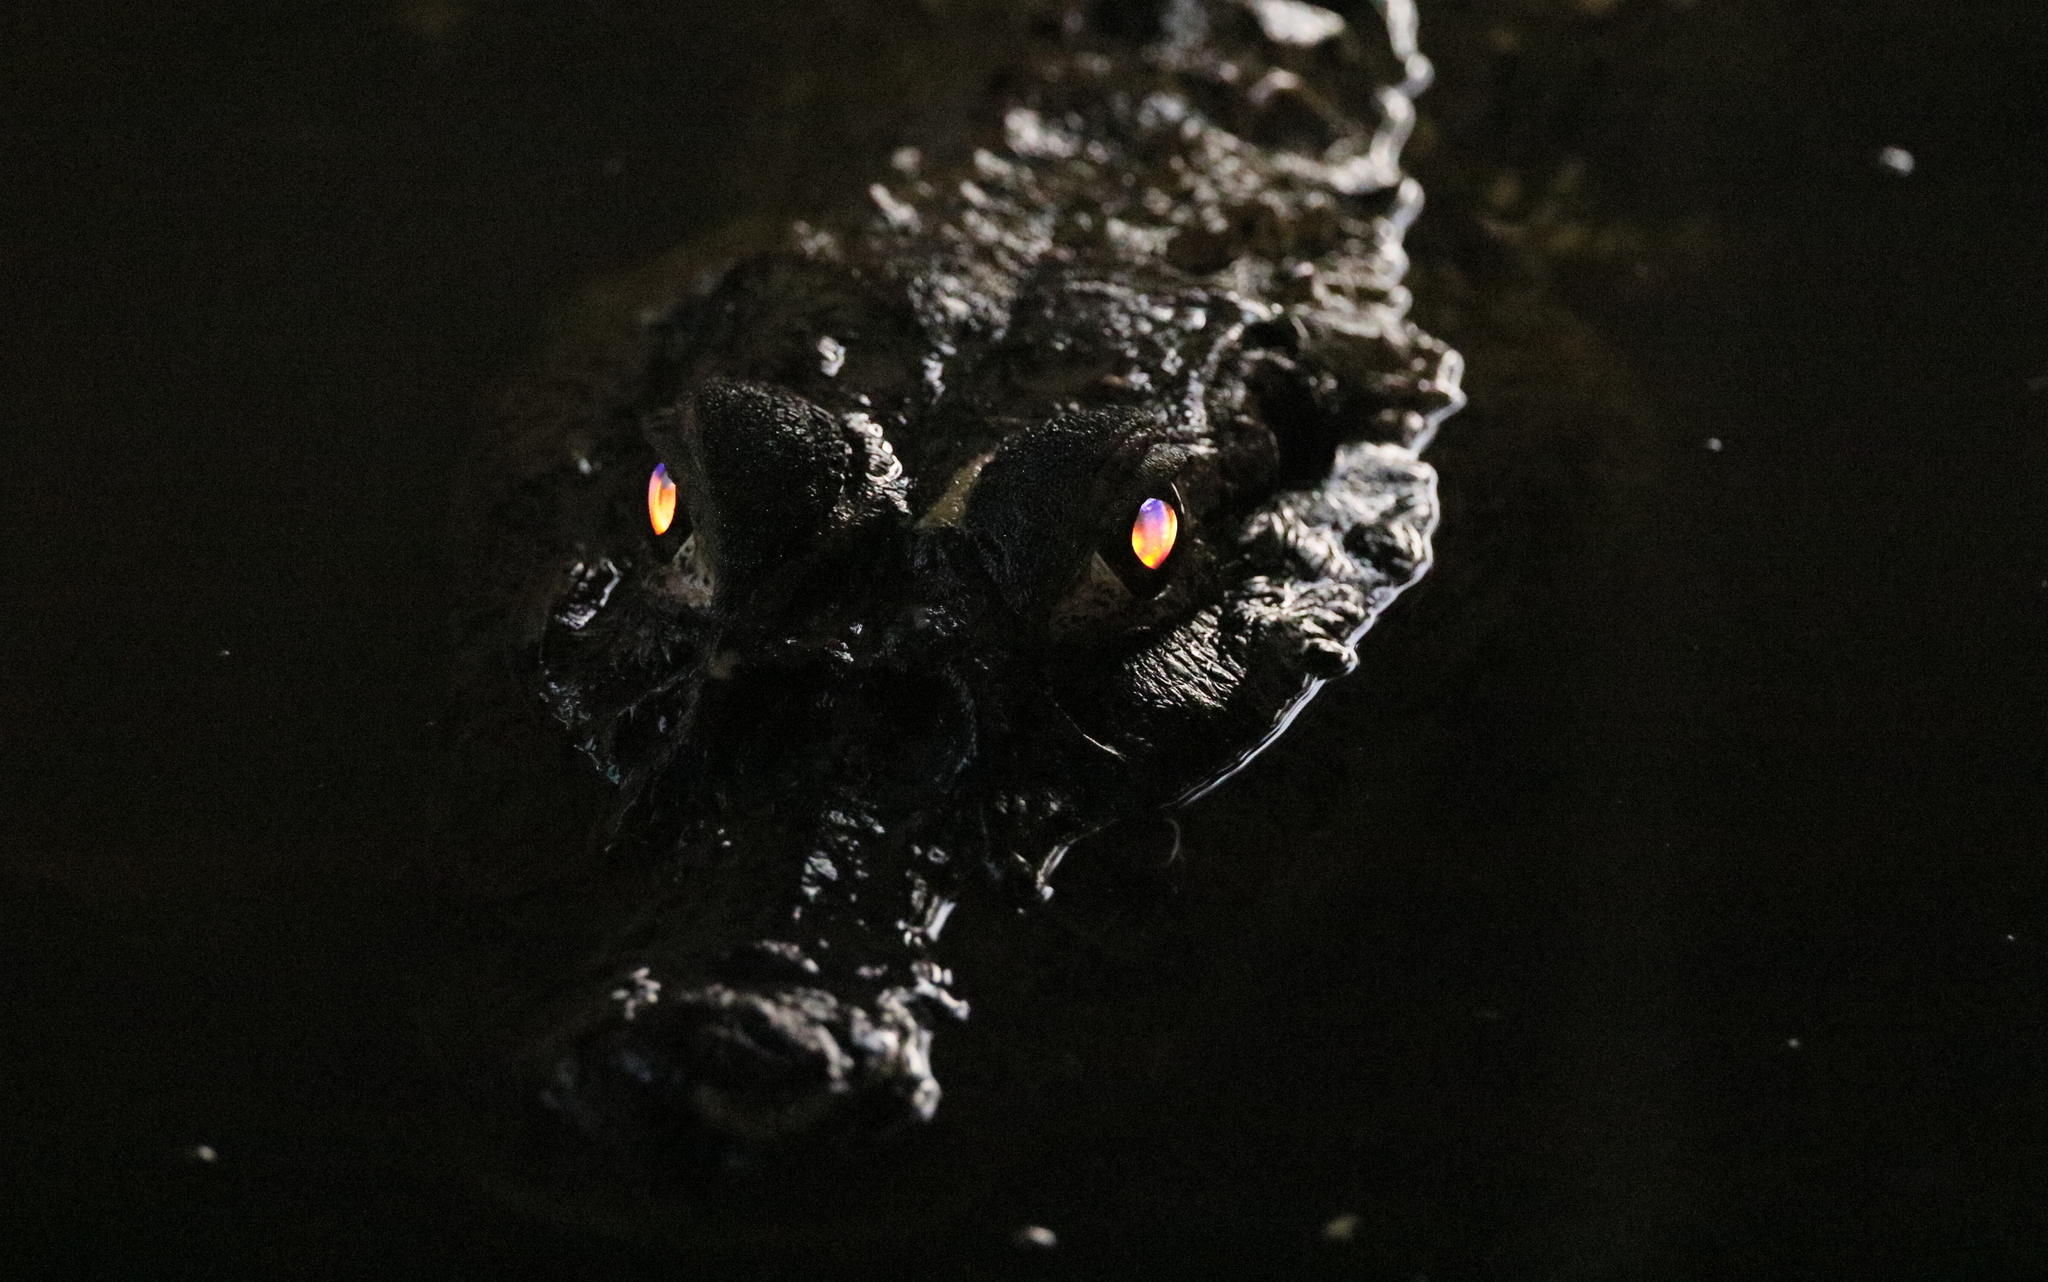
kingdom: Animalia
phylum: Chordata
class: Crocodylia
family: Alligatoridae
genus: Melanosuchus
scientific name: Melanosuchus niger
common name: Black caiman
